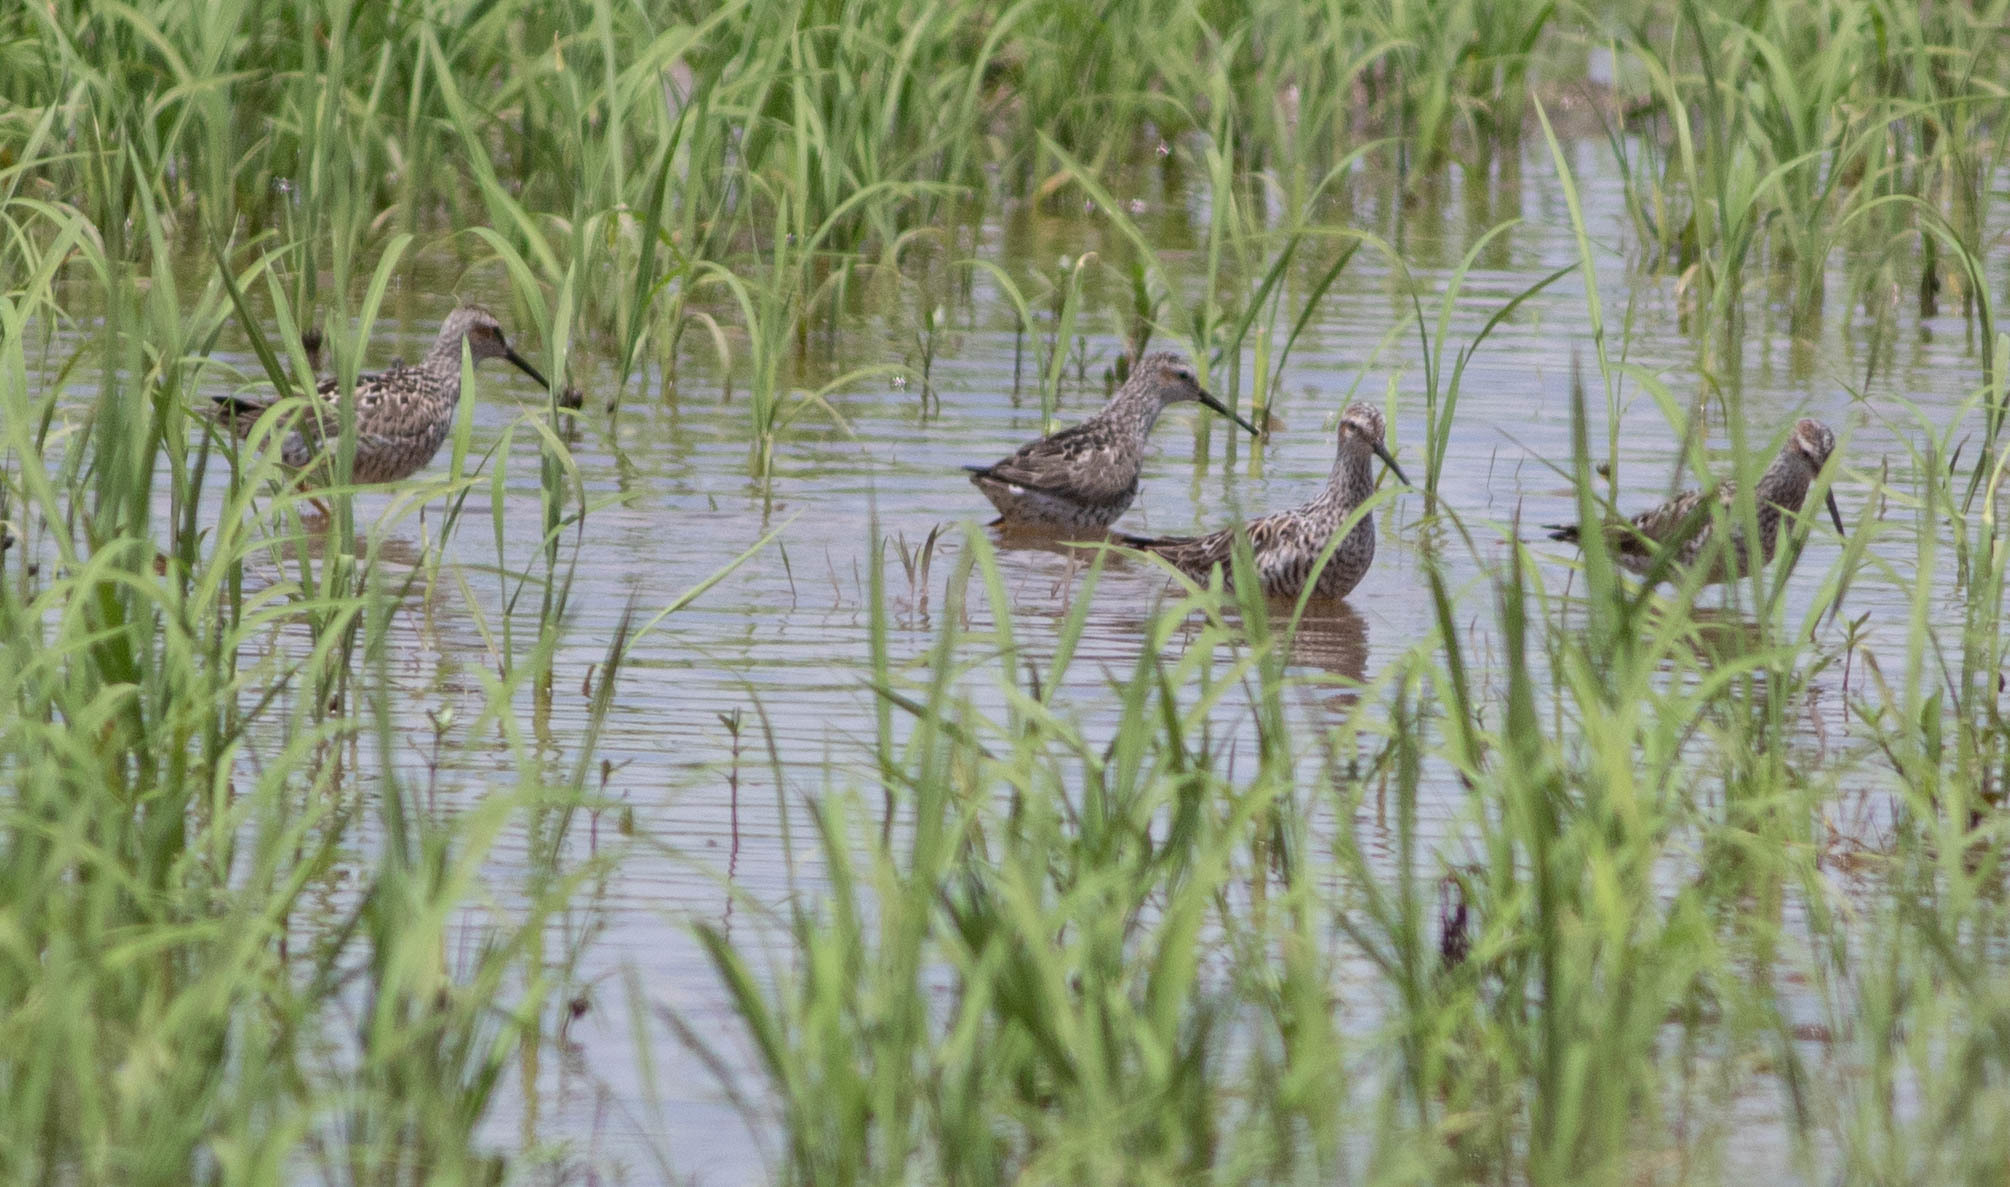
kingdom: Animalia
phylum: Chordata
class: Aves
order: Charadriiformes
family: Scolopacidae
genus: Calidris
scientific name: Calidris himantopus
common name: Stilt sandpiper
